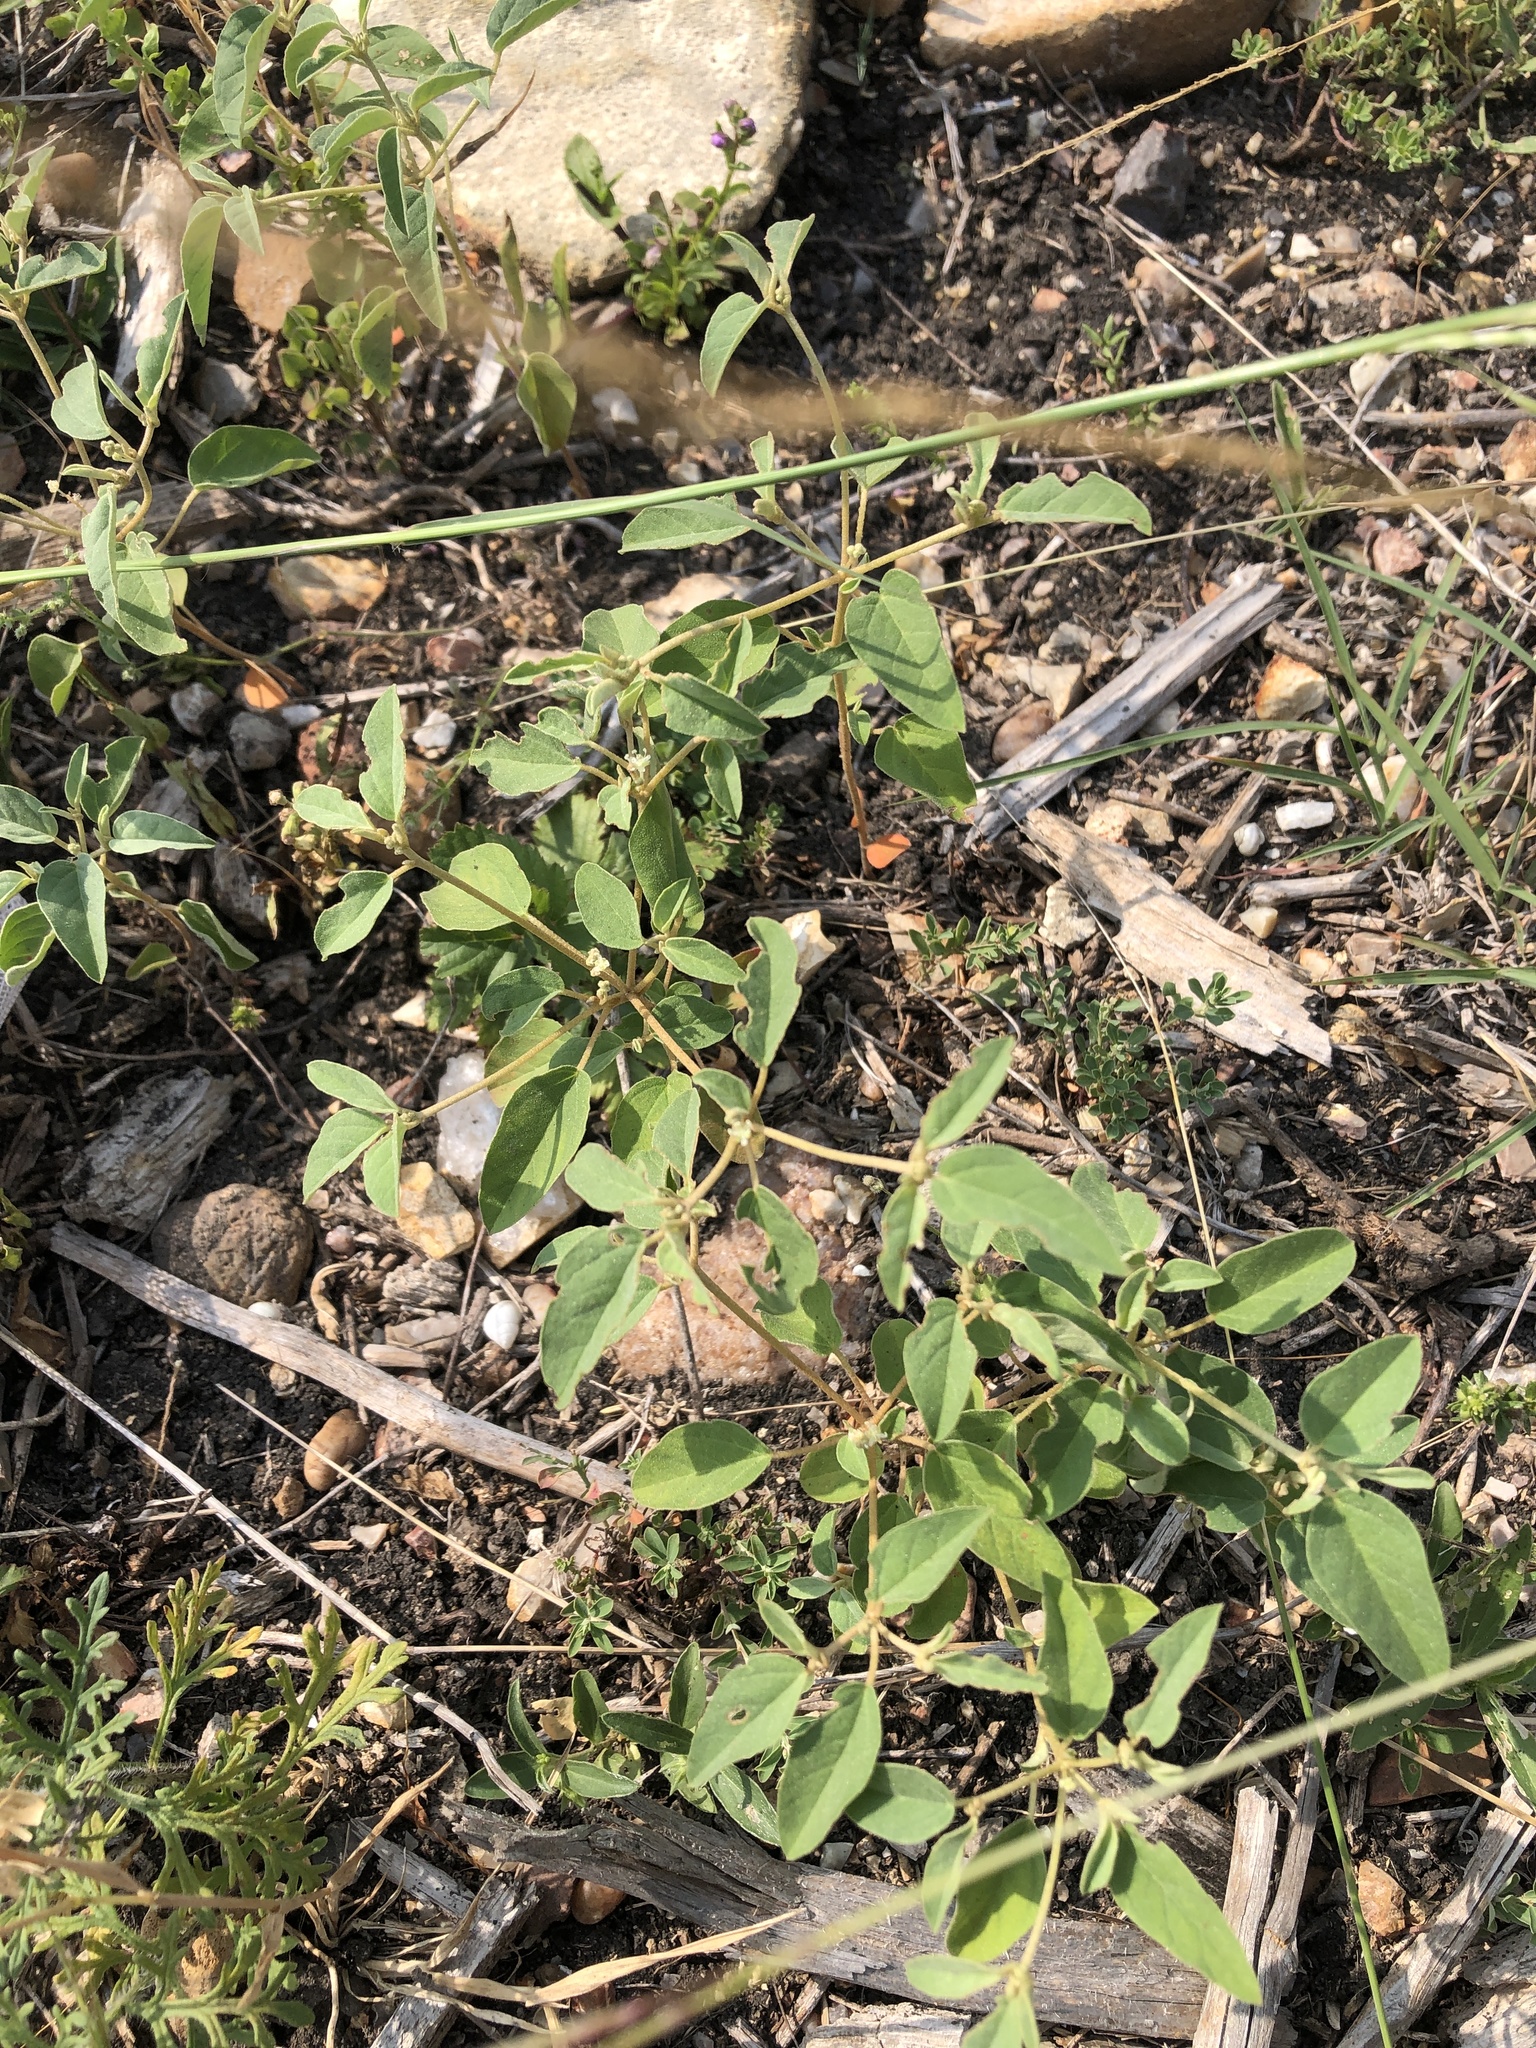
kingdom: Plantae
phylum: Tracheophyta
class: Magnoliopsida
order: Malpighiales
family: Euphorbiaceae
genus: Croton
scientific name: Croton monanthogynus
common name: One-seed croton
